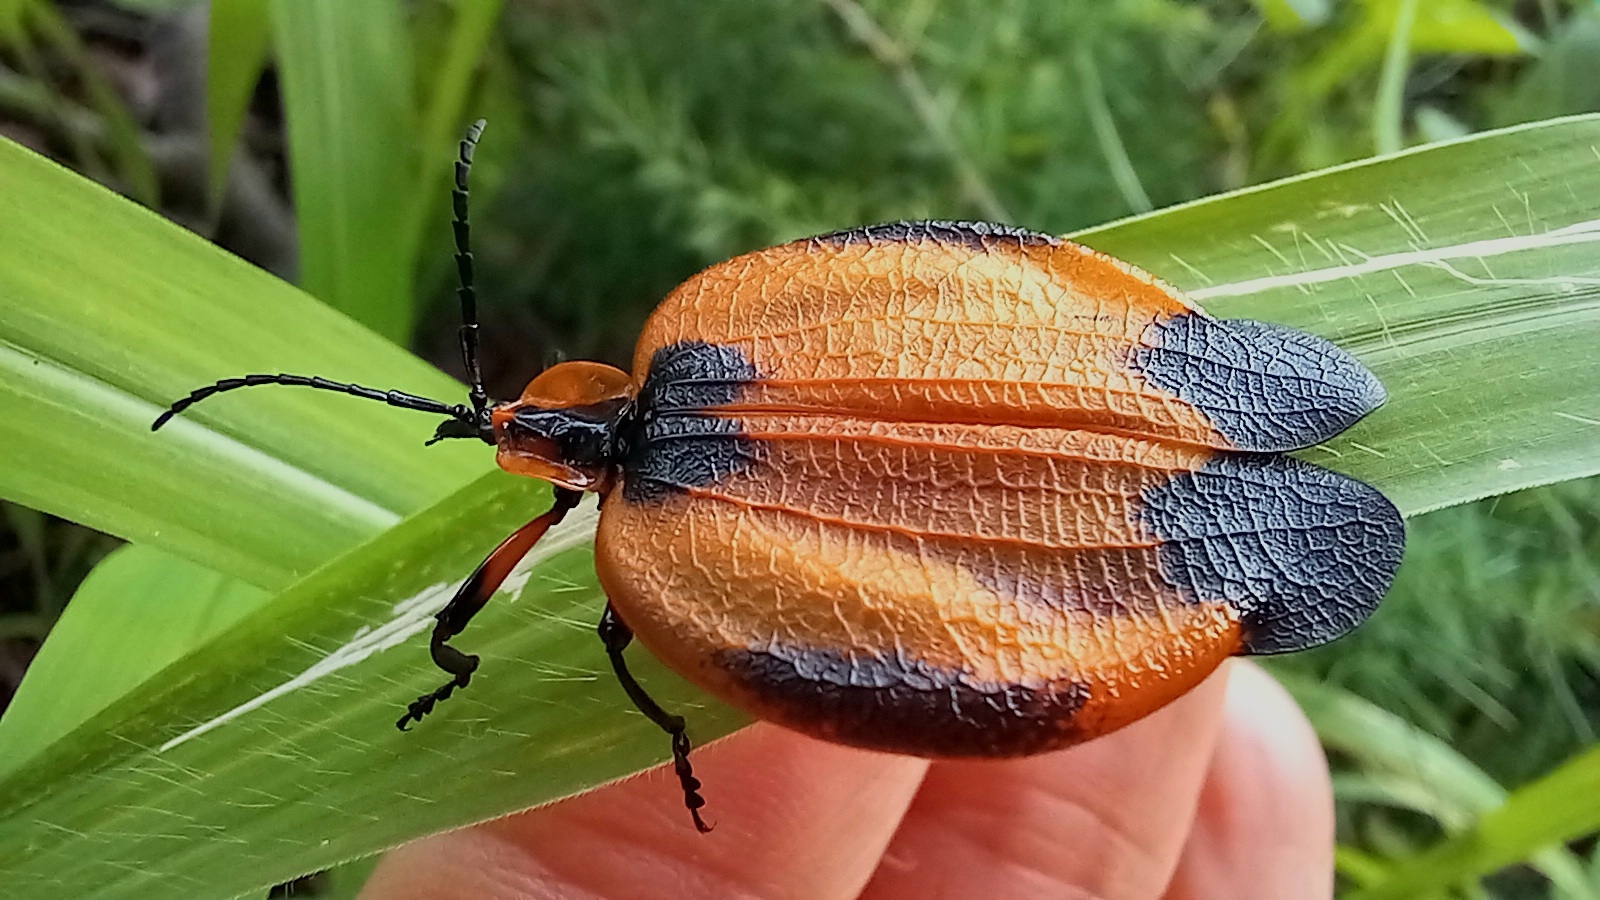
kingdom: Animalia
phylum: Arthropoda
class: Insecta
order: Coleoptera
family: Lycidae
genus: Lycus
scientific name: Lycus
